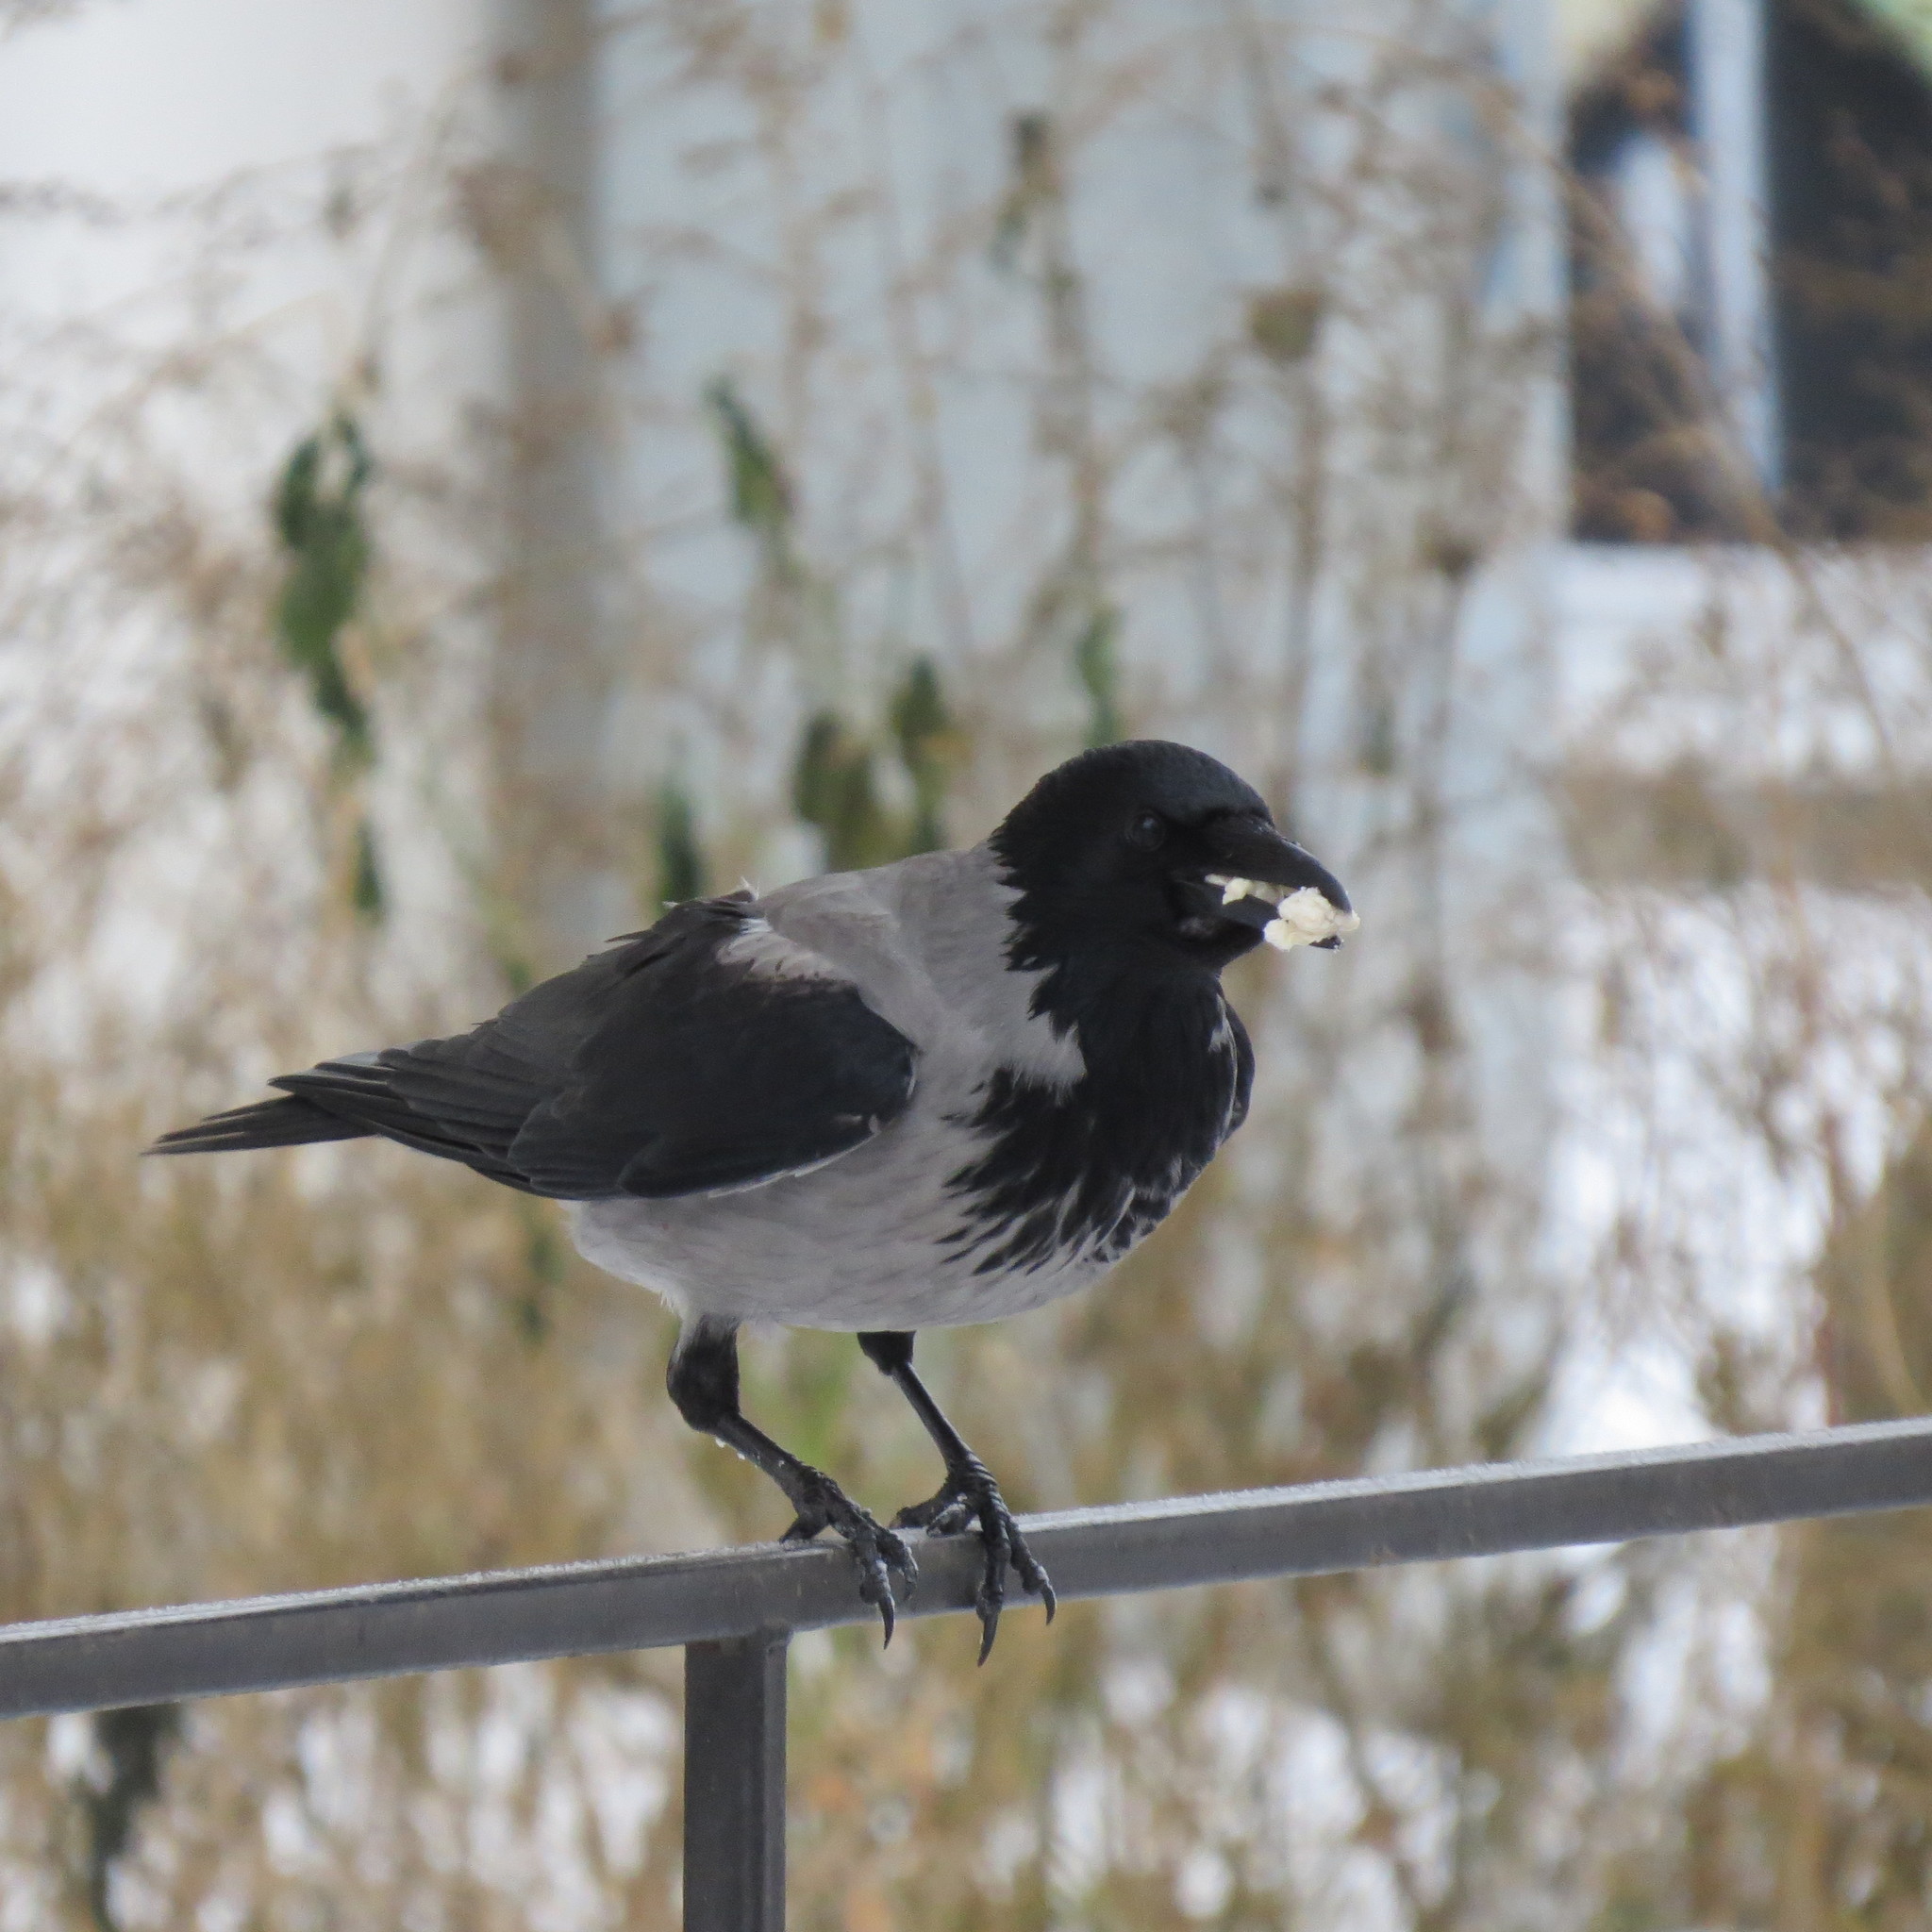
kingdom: Animalia
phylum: Chordata
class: Aves
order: Passeriformes
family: Corvidae
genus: Corvus
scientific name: Corvus cornix
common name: Hooded crow
